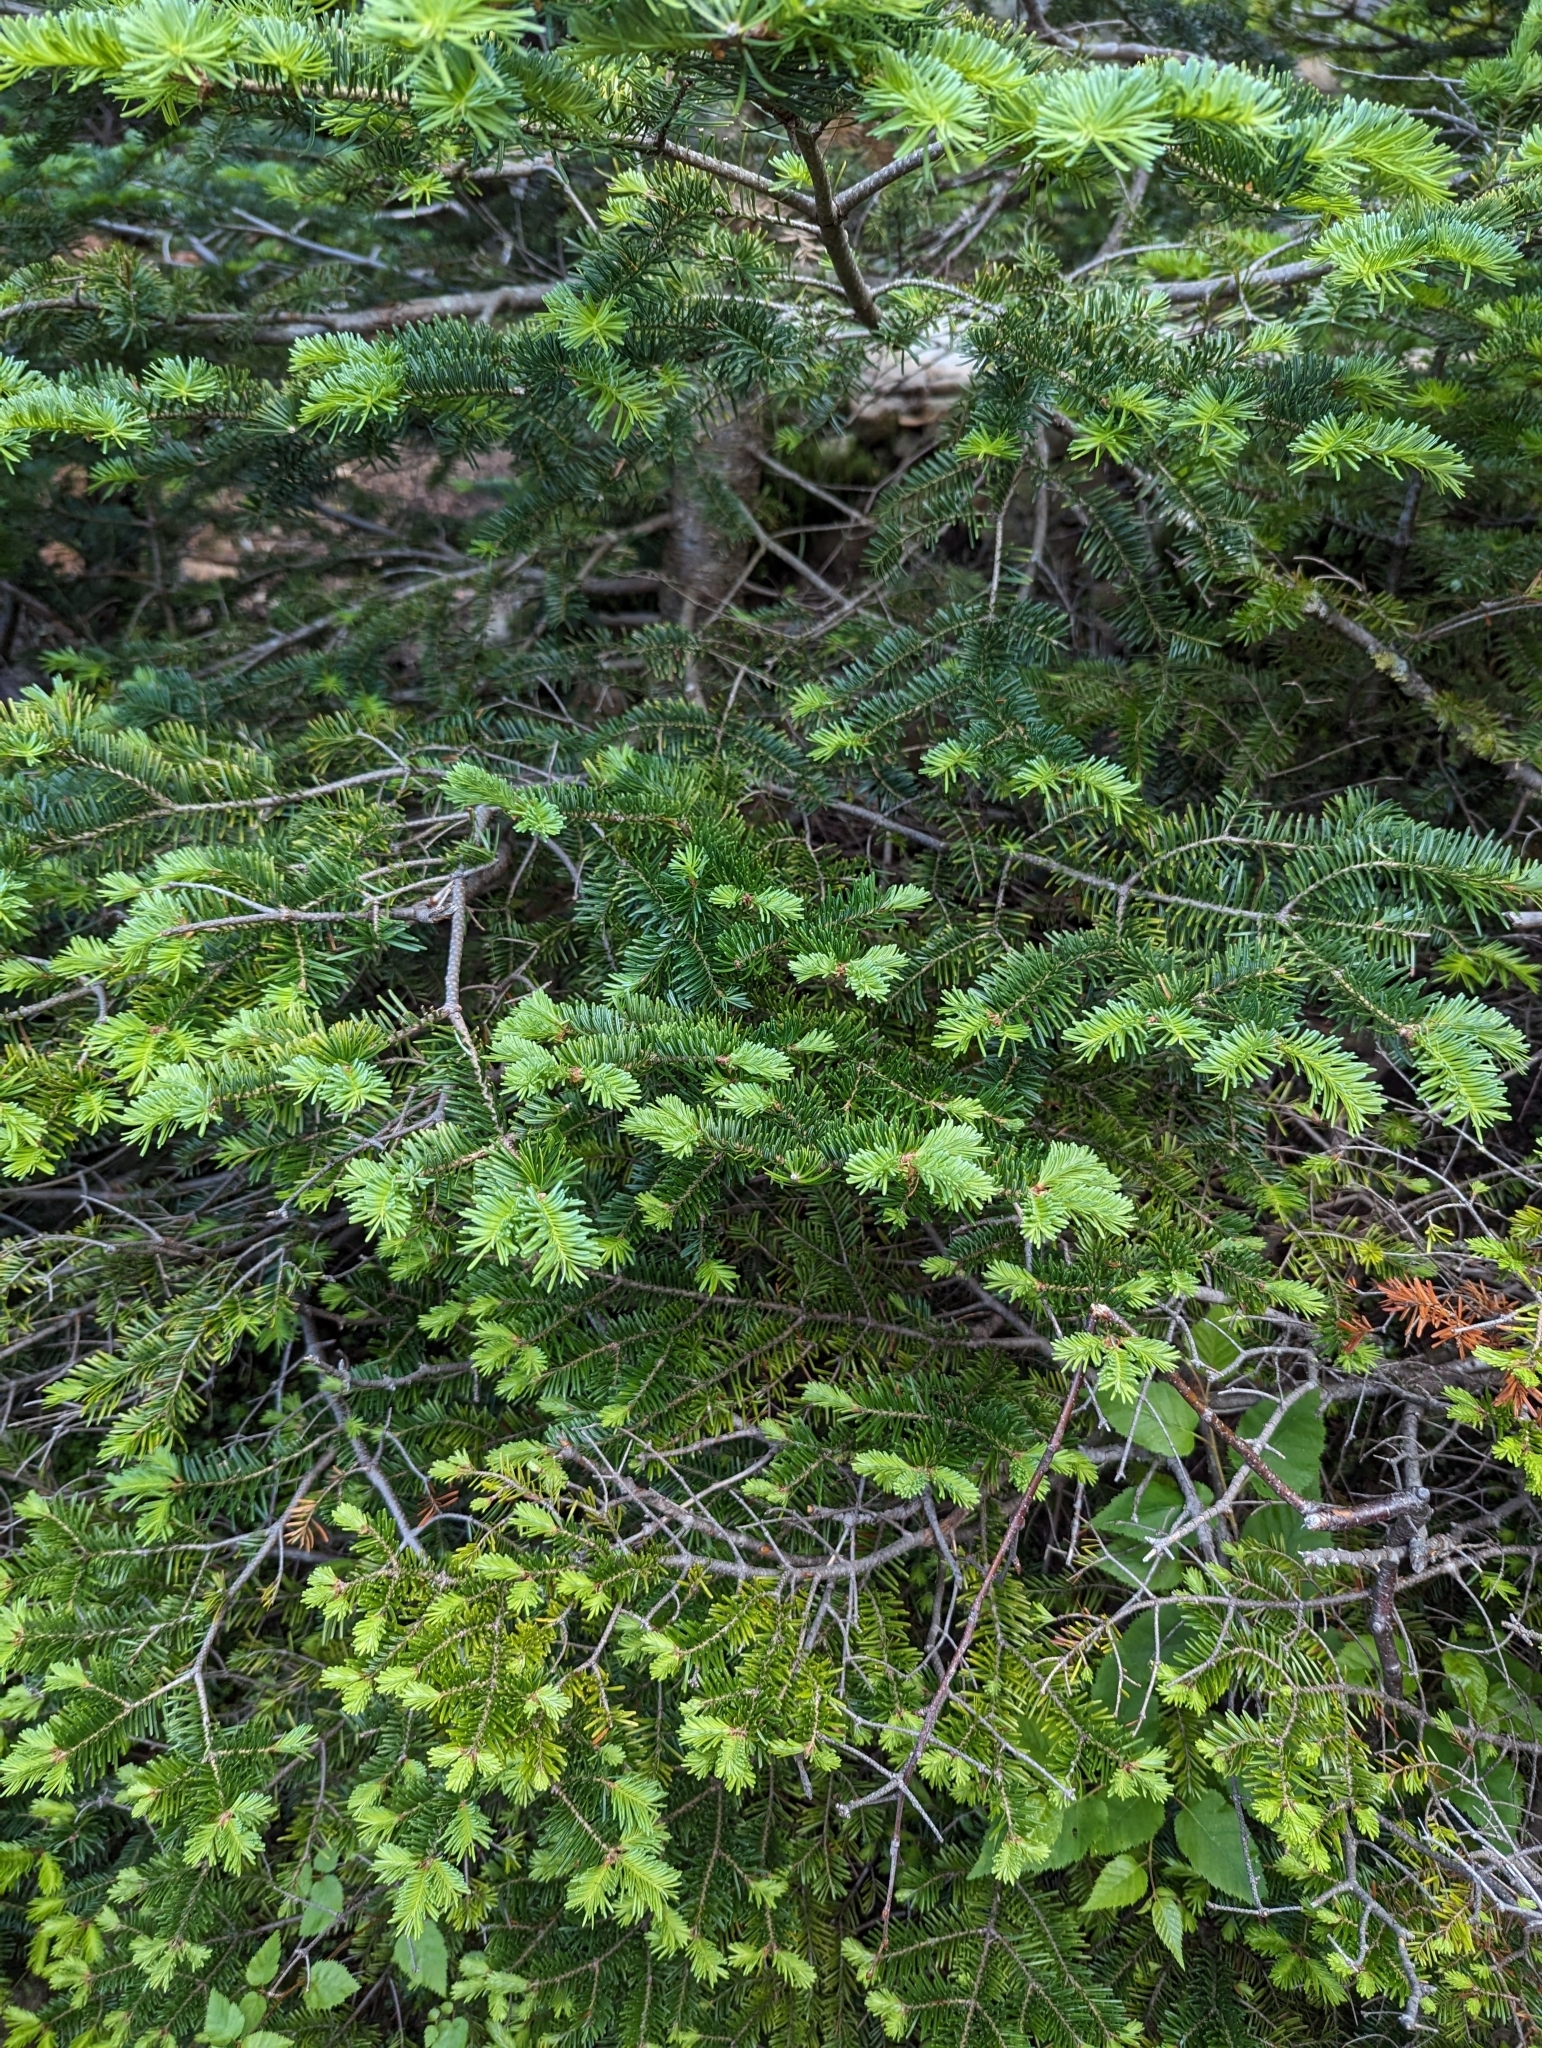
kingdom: Plantae
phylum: Tracheophyta
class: Pinopsida
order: Pinales
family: Pinaceae
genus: Abies
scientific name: Abies balsamea
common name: Balsam fir
